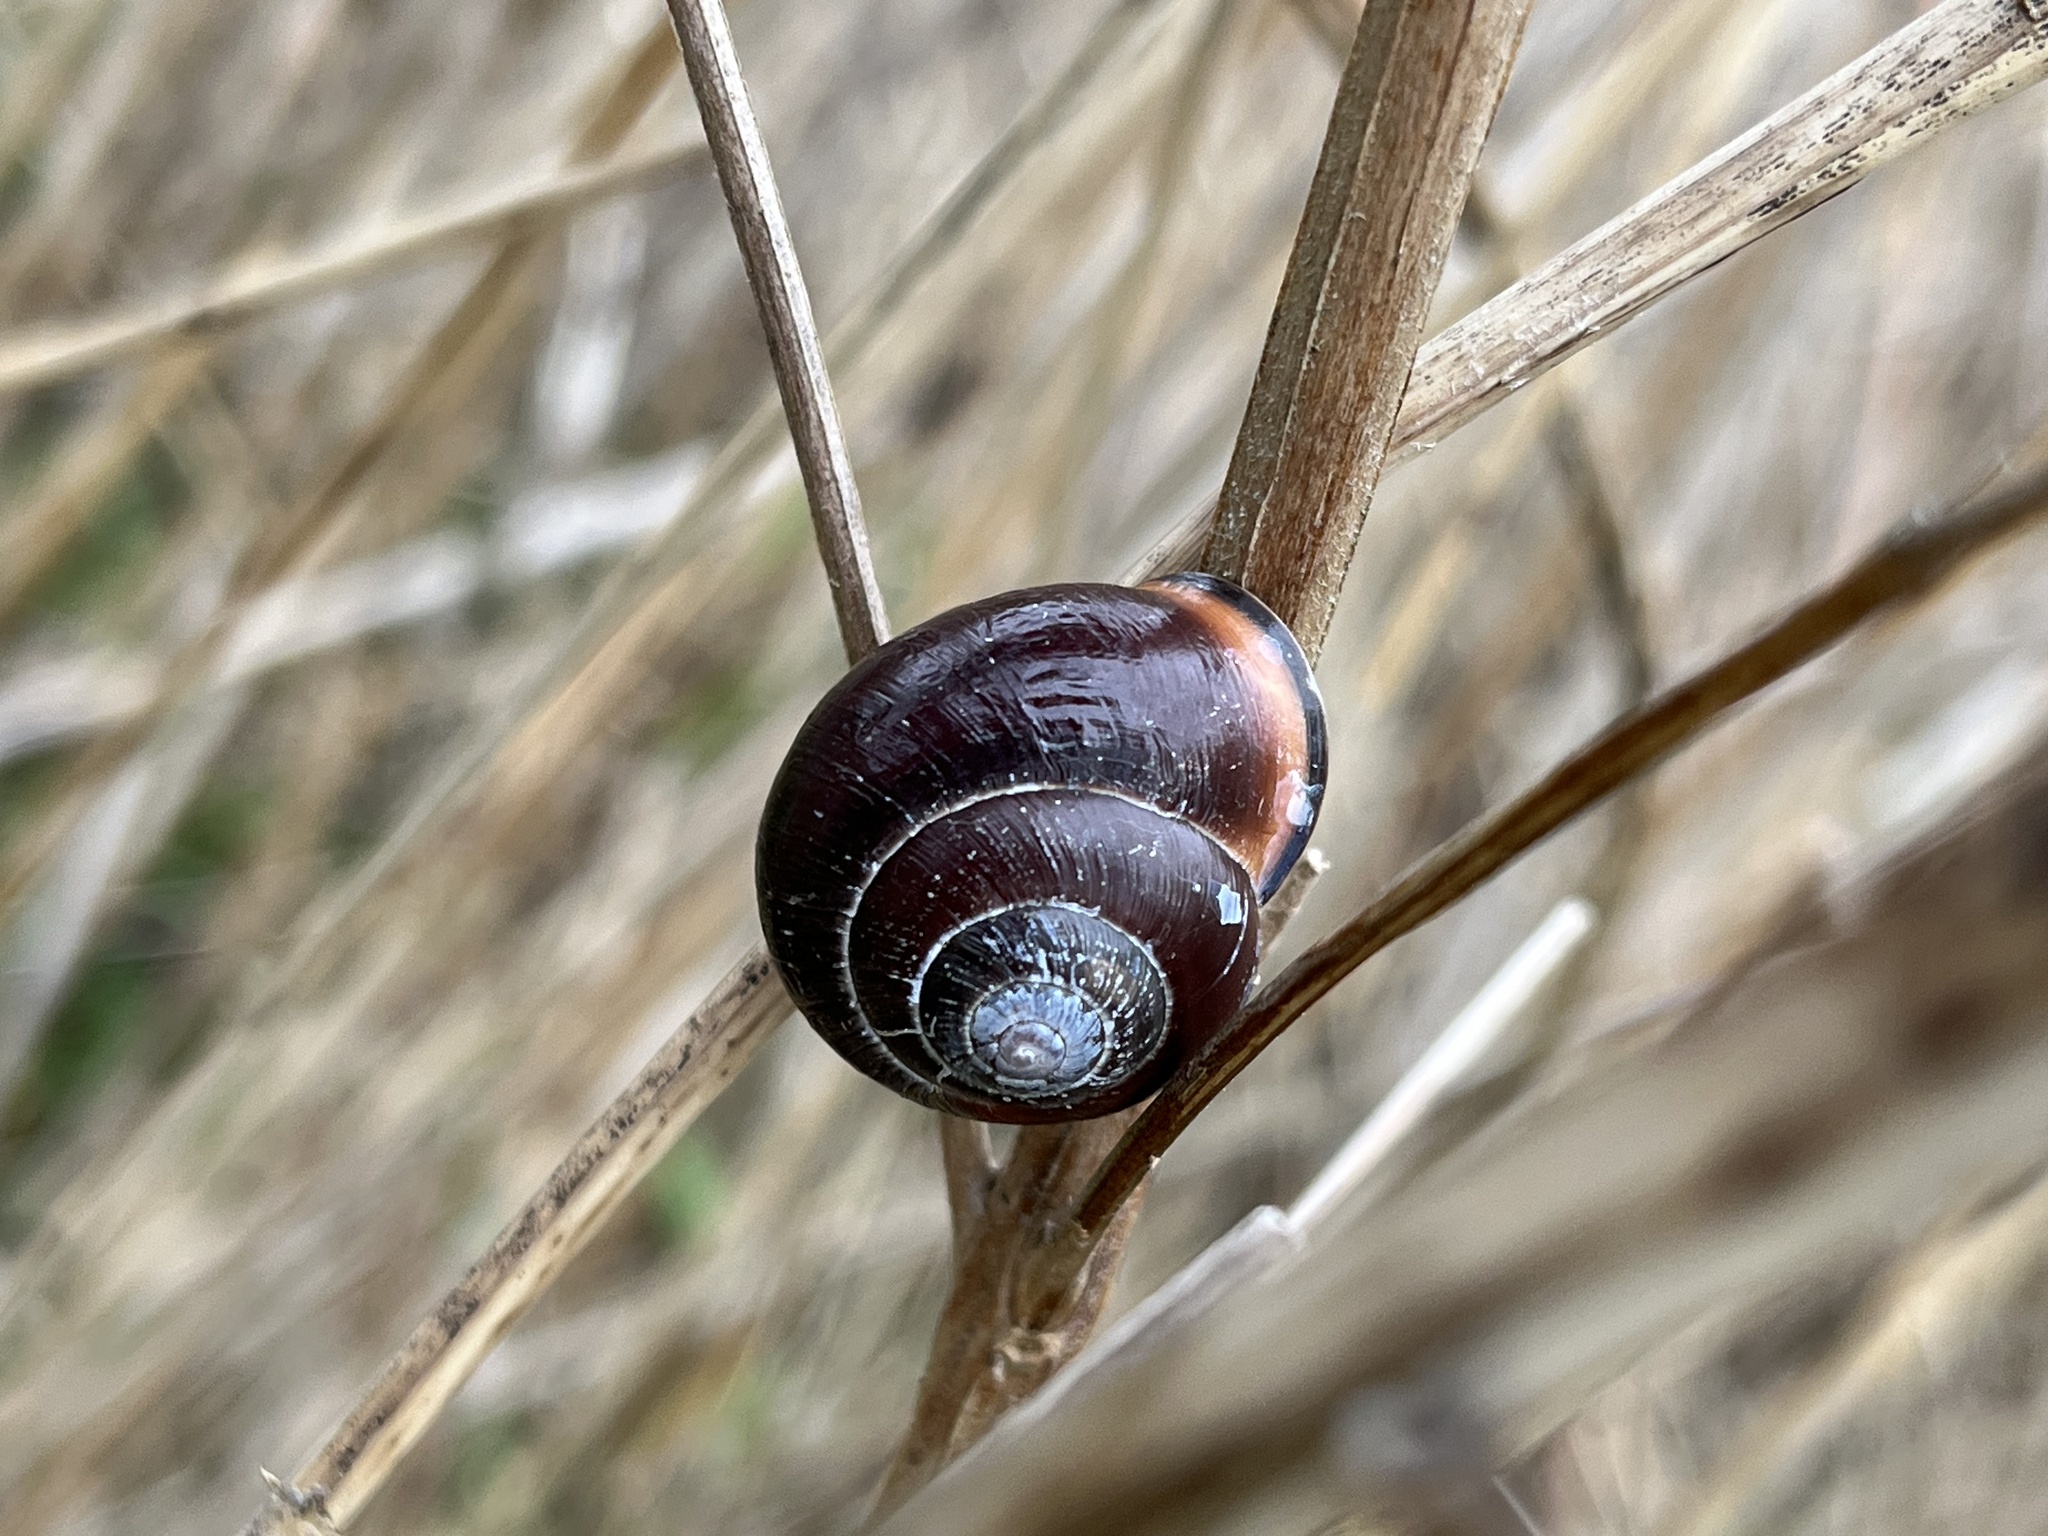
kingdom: Animalia
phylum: Mollusca
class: Gastropoda
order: Stylommatophora
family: Helicidae
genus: Cepaea
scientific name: Cepaea nemoralis
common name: Grovesnail
